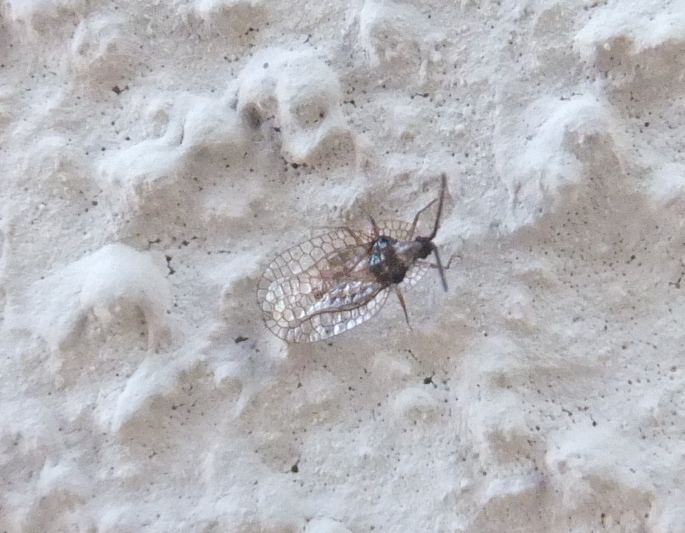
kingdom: Animalia
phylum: Arthropoda
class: Insecta
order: Hemiptera
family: Tingidae
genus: Derephysia
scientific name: Derephysia foliacea
